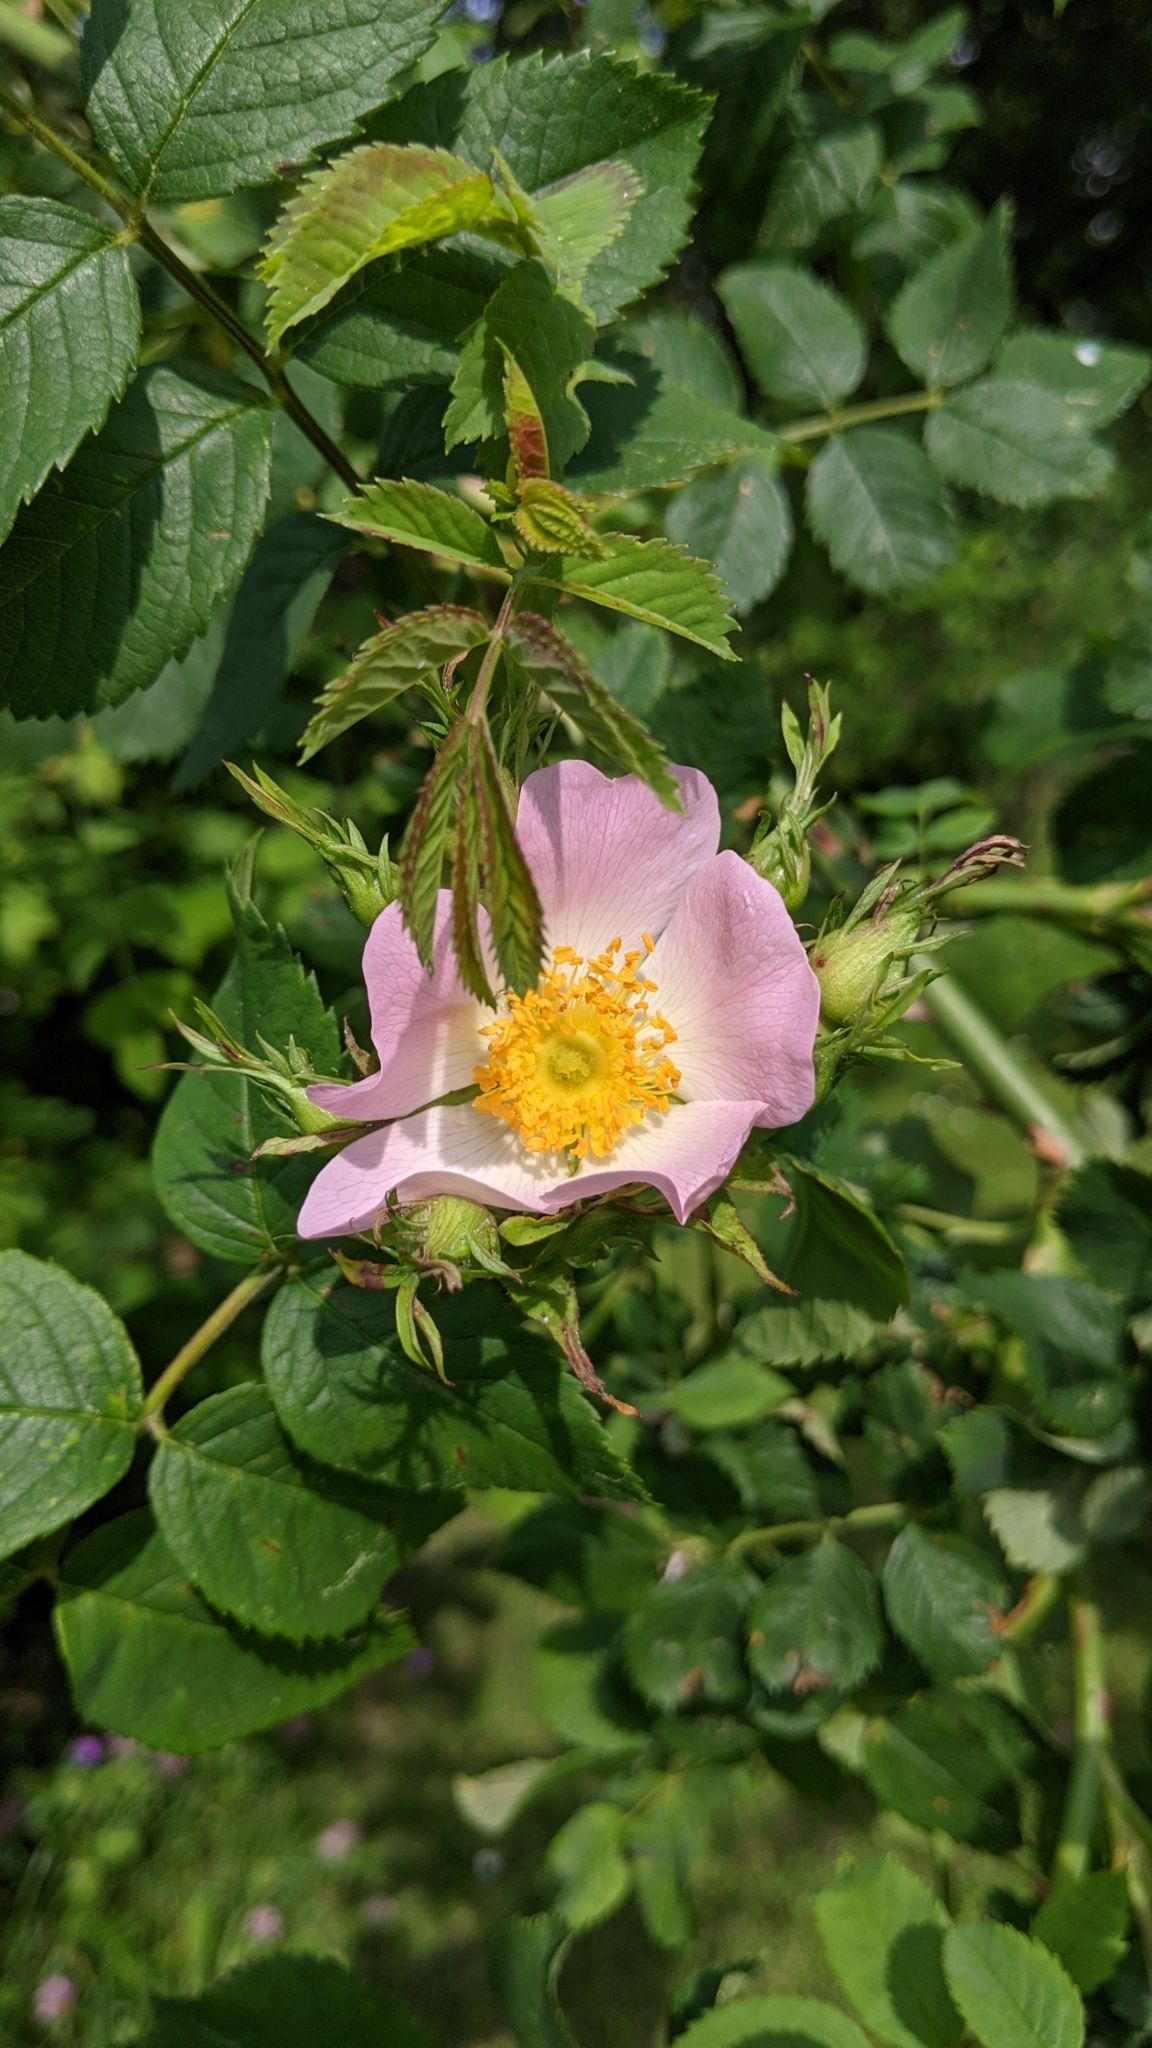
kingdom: Plantae
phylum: Tracheophyta
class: Magnoliopsida
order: Rosales
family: Rosaceae
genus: Rosa
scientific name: Rosa canina
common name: Dog rose
